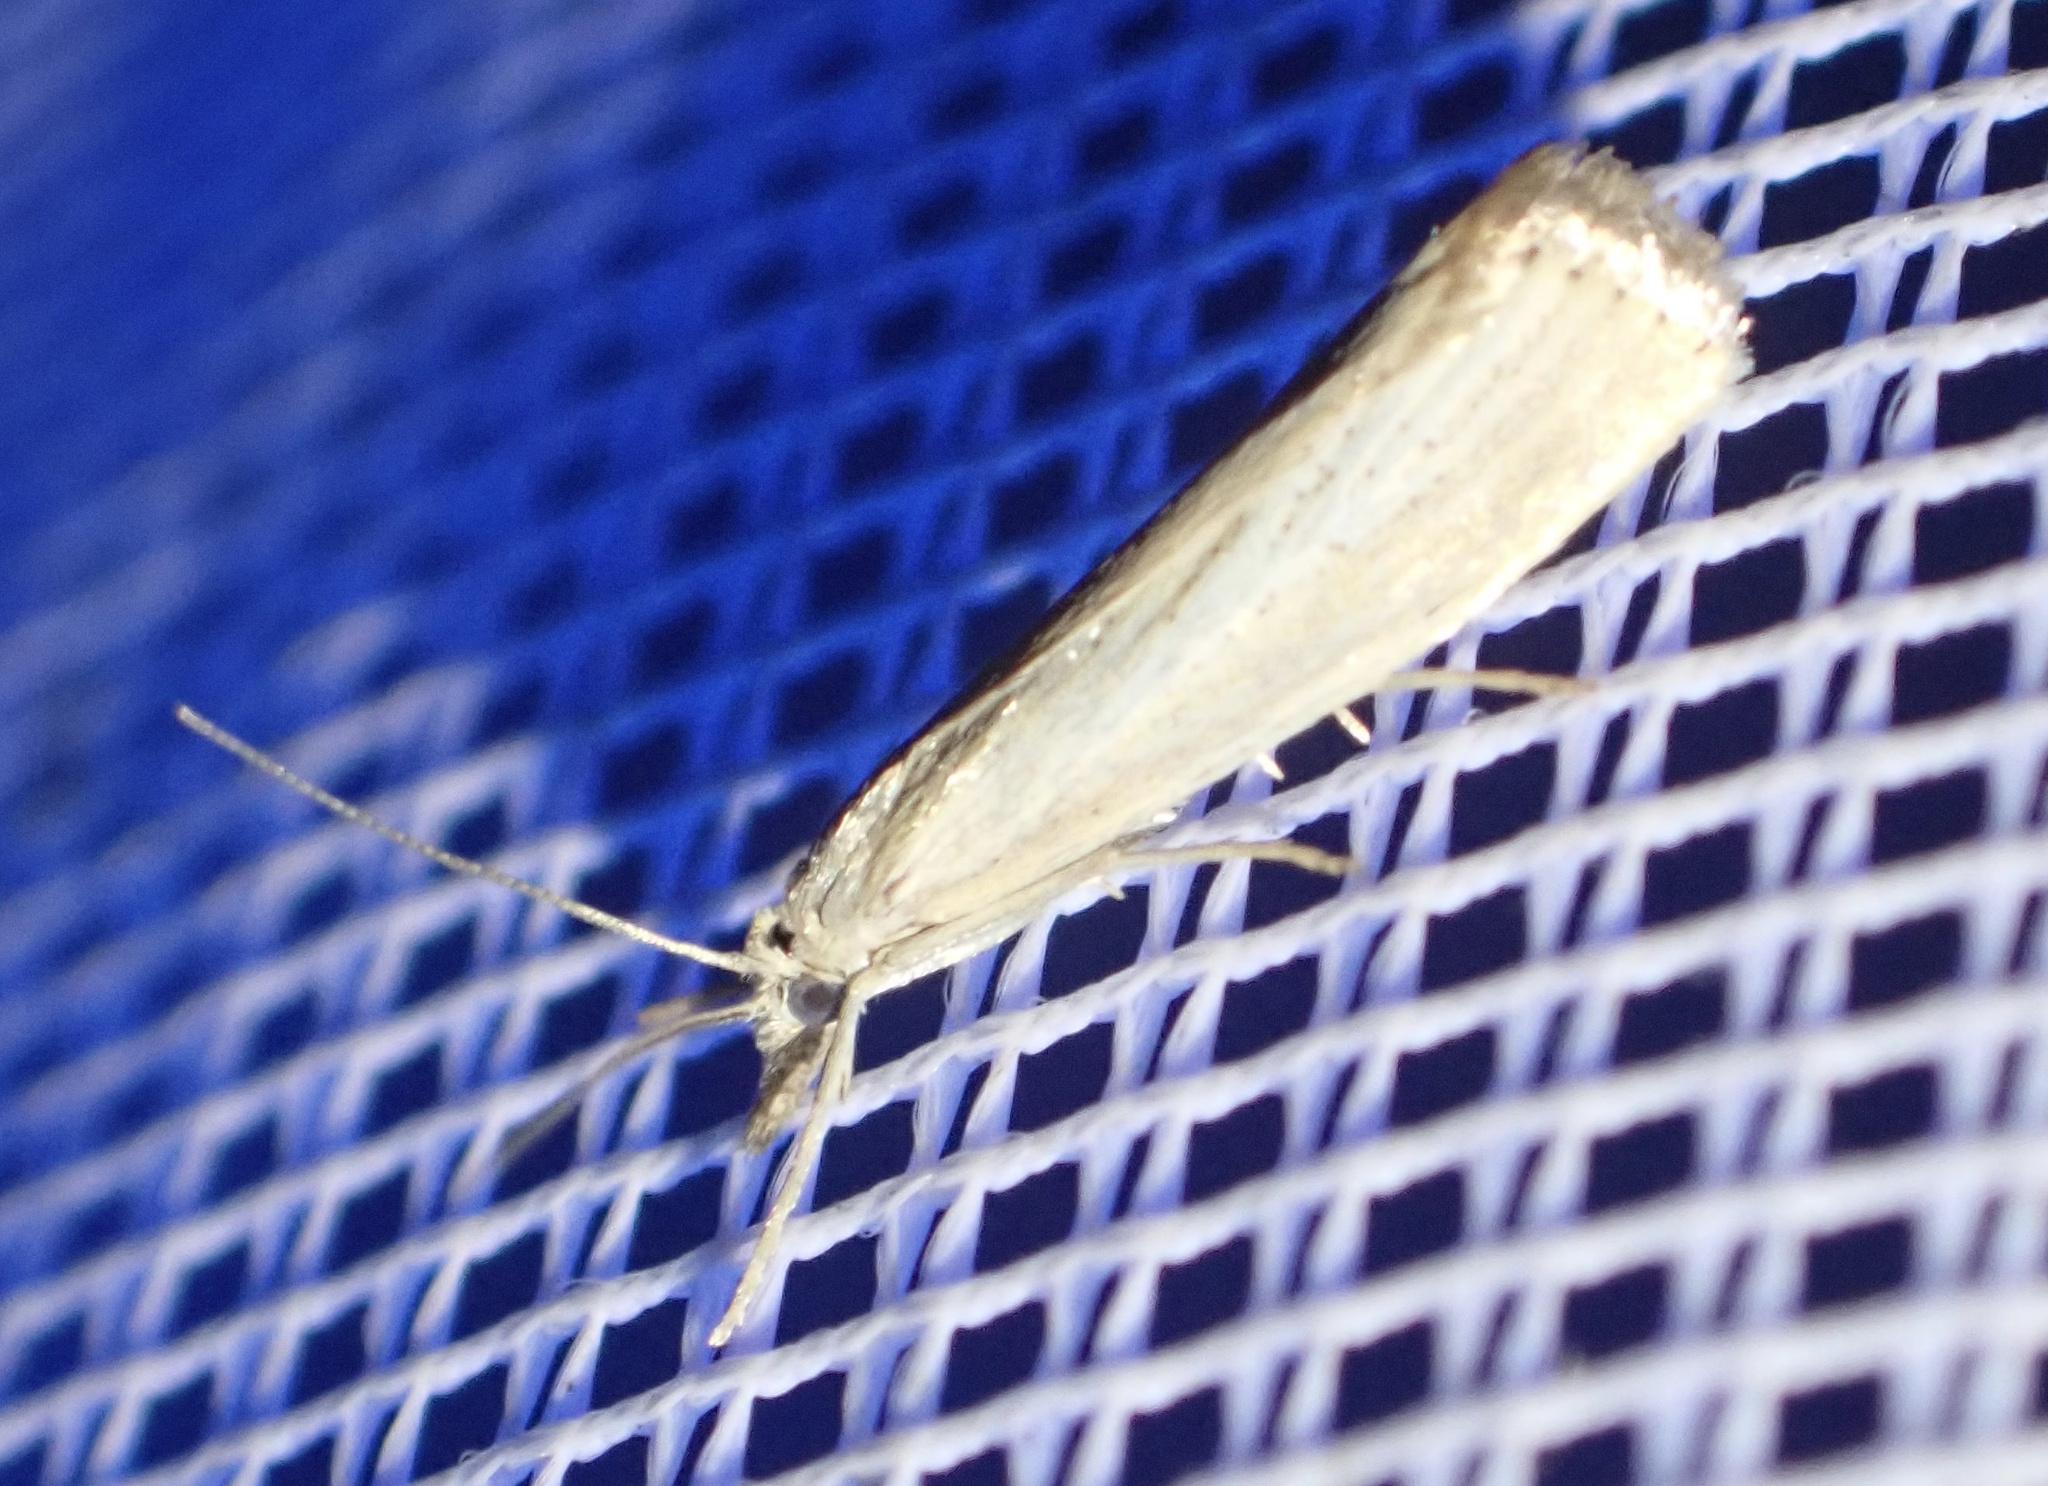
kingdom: Animalia
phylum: Arthropoda
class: Insecta
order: Lepidoptera
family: Crambidae
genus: Agriphila
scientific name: Agriphila straminella
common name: Straw grass-veneer
